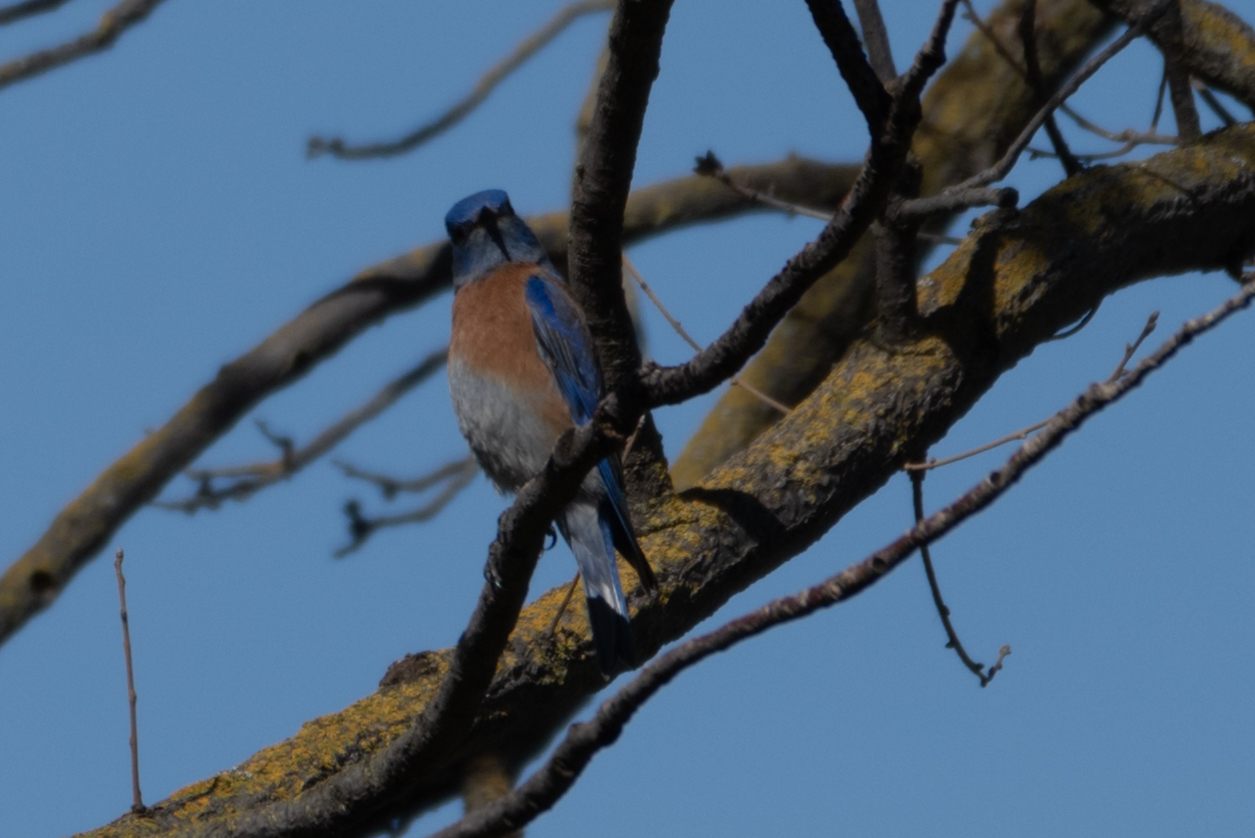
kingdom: Animalia
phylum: Chordata
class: Aves
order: Passeriformes
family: Turdidae
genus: Sialia
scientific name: Sialia mexicana
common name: Western bluebird
